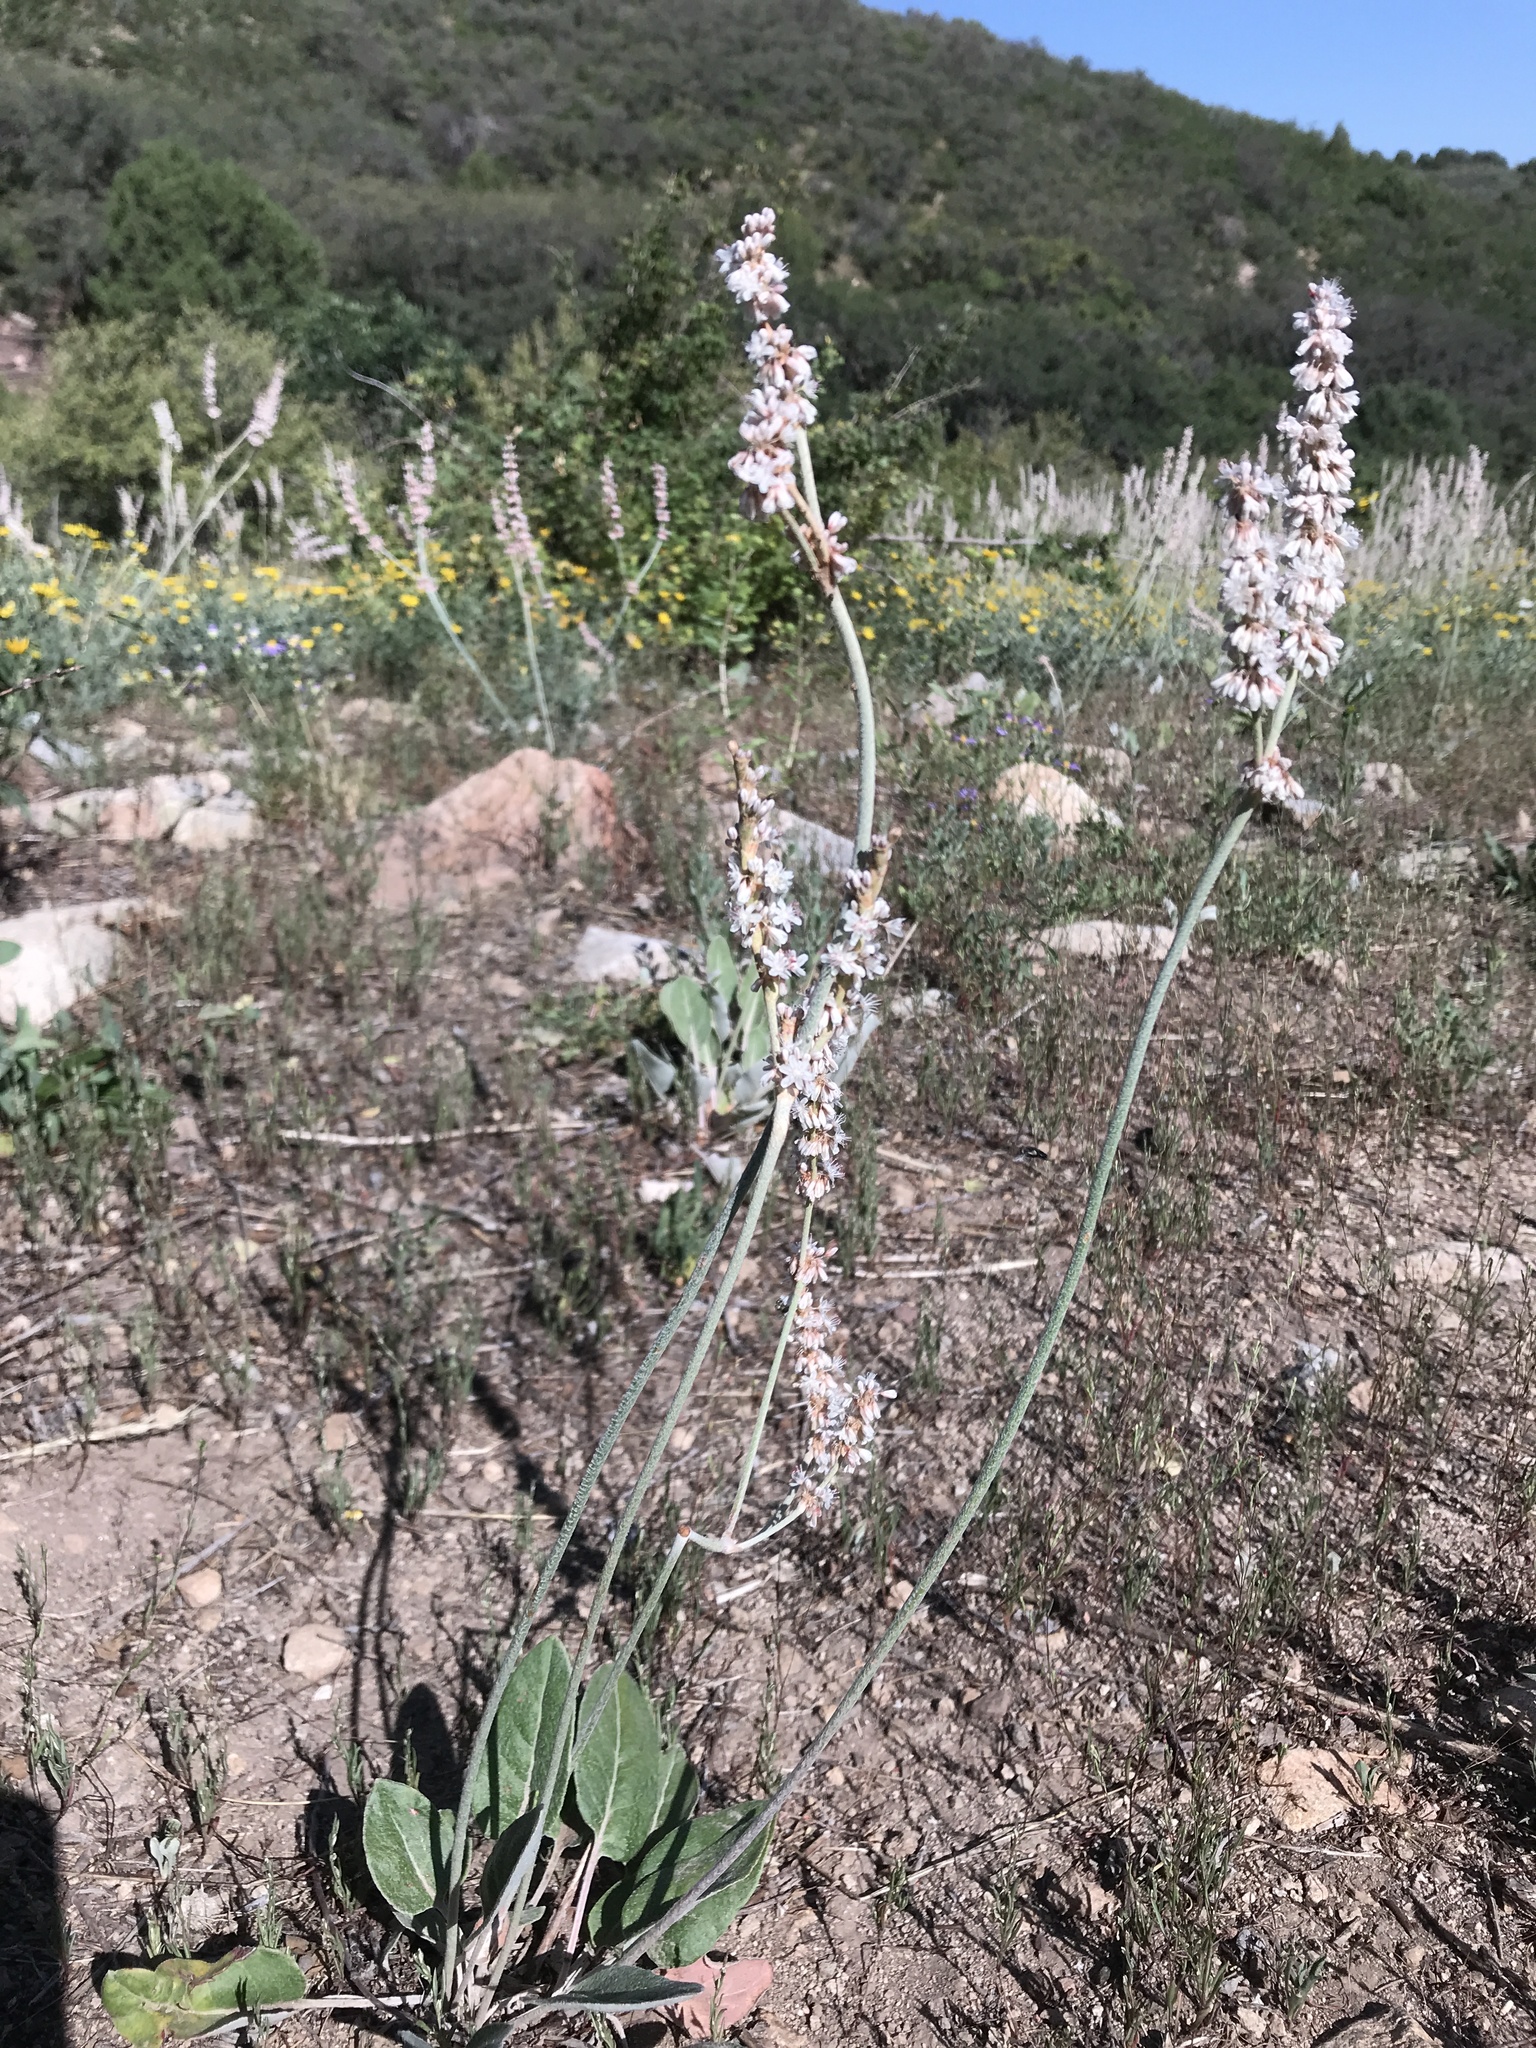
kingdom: Plantae
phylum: Tracheophyta
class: Magnoliopsida
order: Caryophyllales
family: Polygonaceae
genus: Eriogonum
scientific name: Eriogonum racemosum
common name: Redroot wild buckwheat
